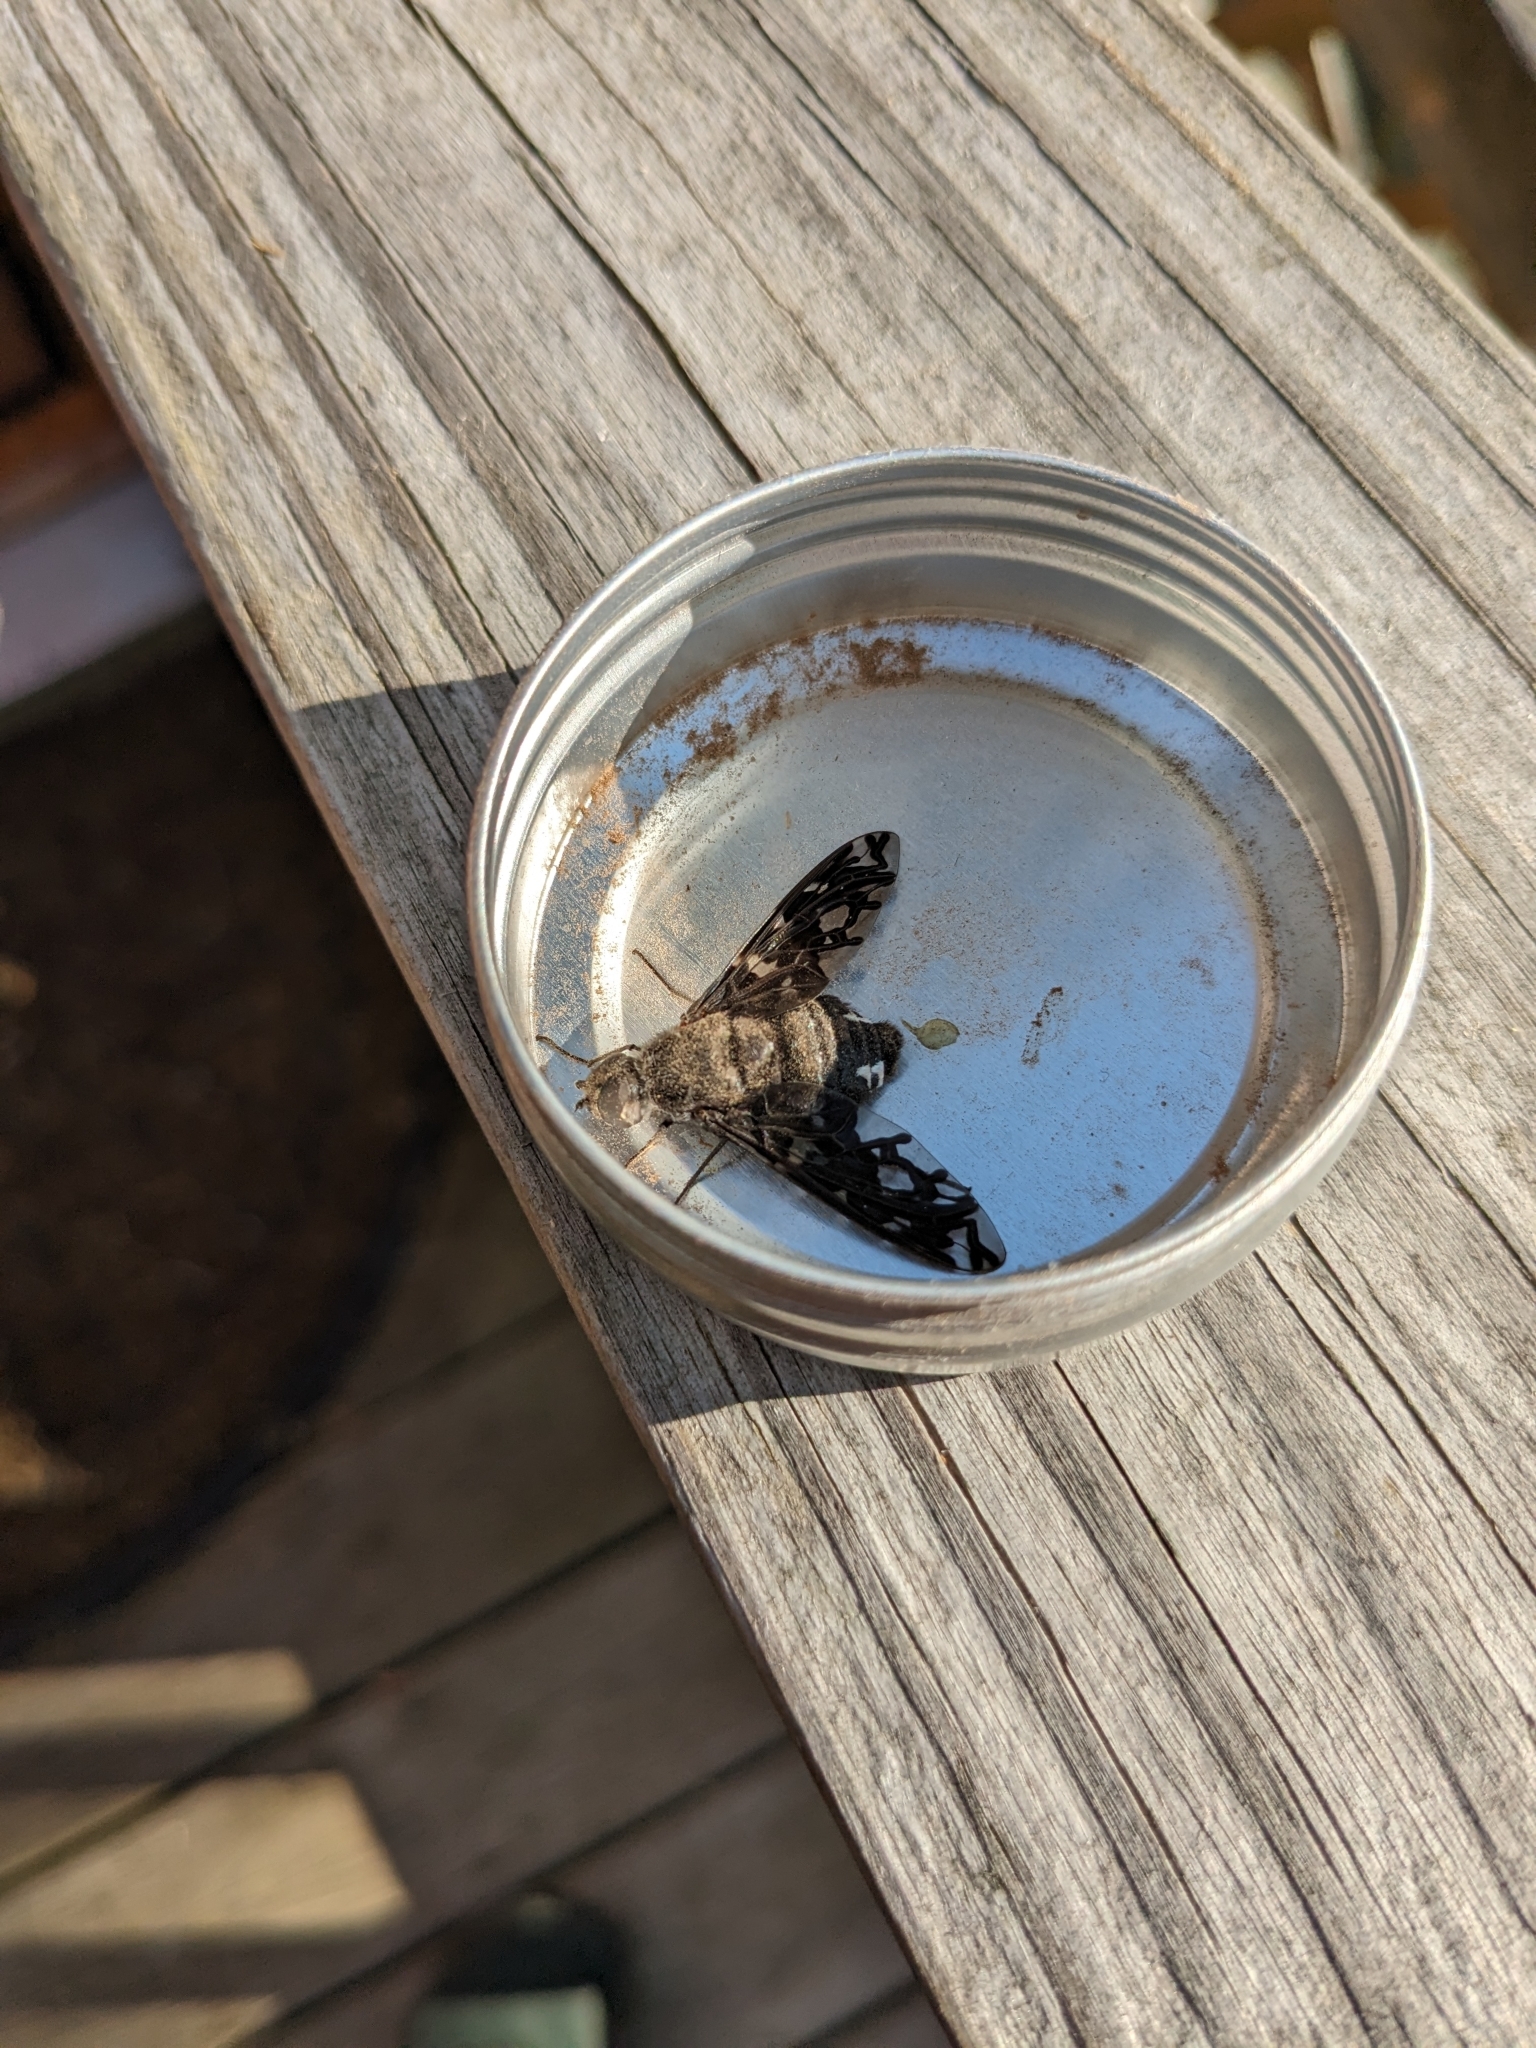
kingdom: Animalia
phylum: Arthropoda
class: Insecta
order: Diptera
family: Bombyliidae
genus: Xenox
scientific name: Xenox tigrinus
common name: Tiger bee fly
